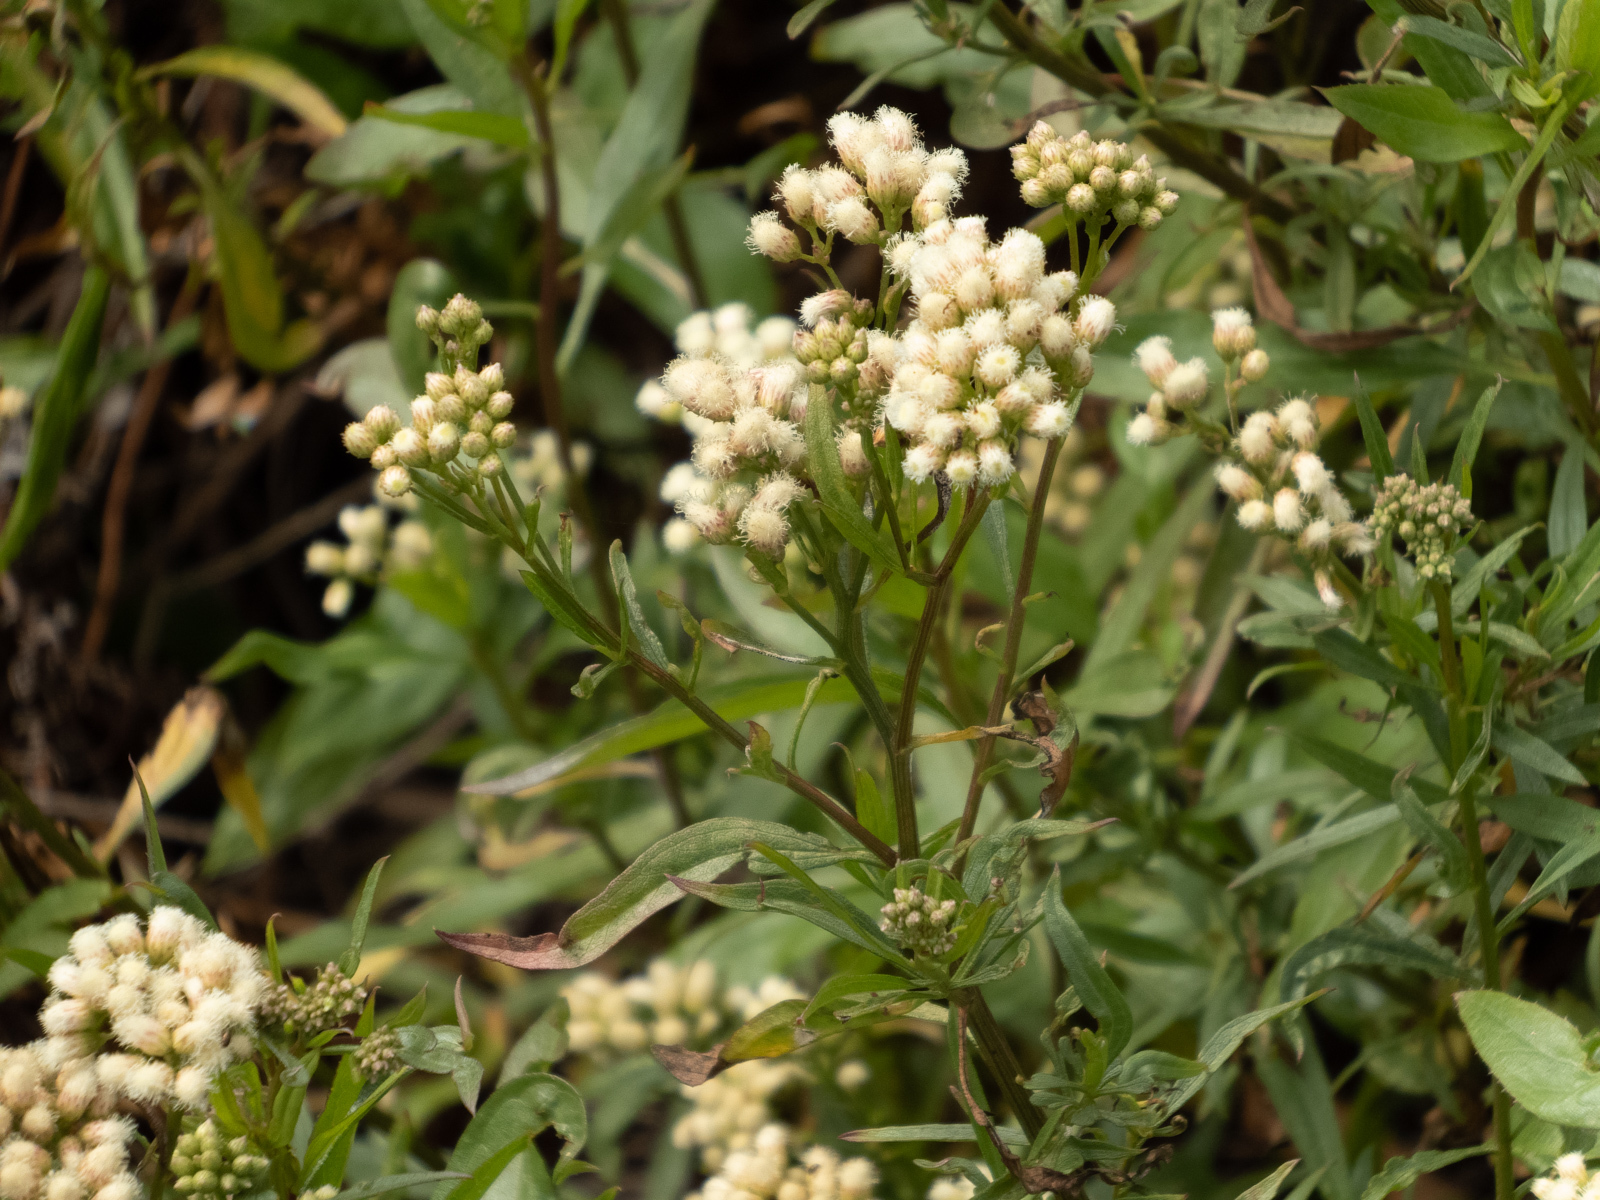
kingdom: Plantae
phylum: Tracheophyta
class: Magnoliopsida
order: Asterales
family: Asteraceae
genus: Baccharis
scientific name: Baccharis glutinosa
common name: Saltmarsh baccharis
